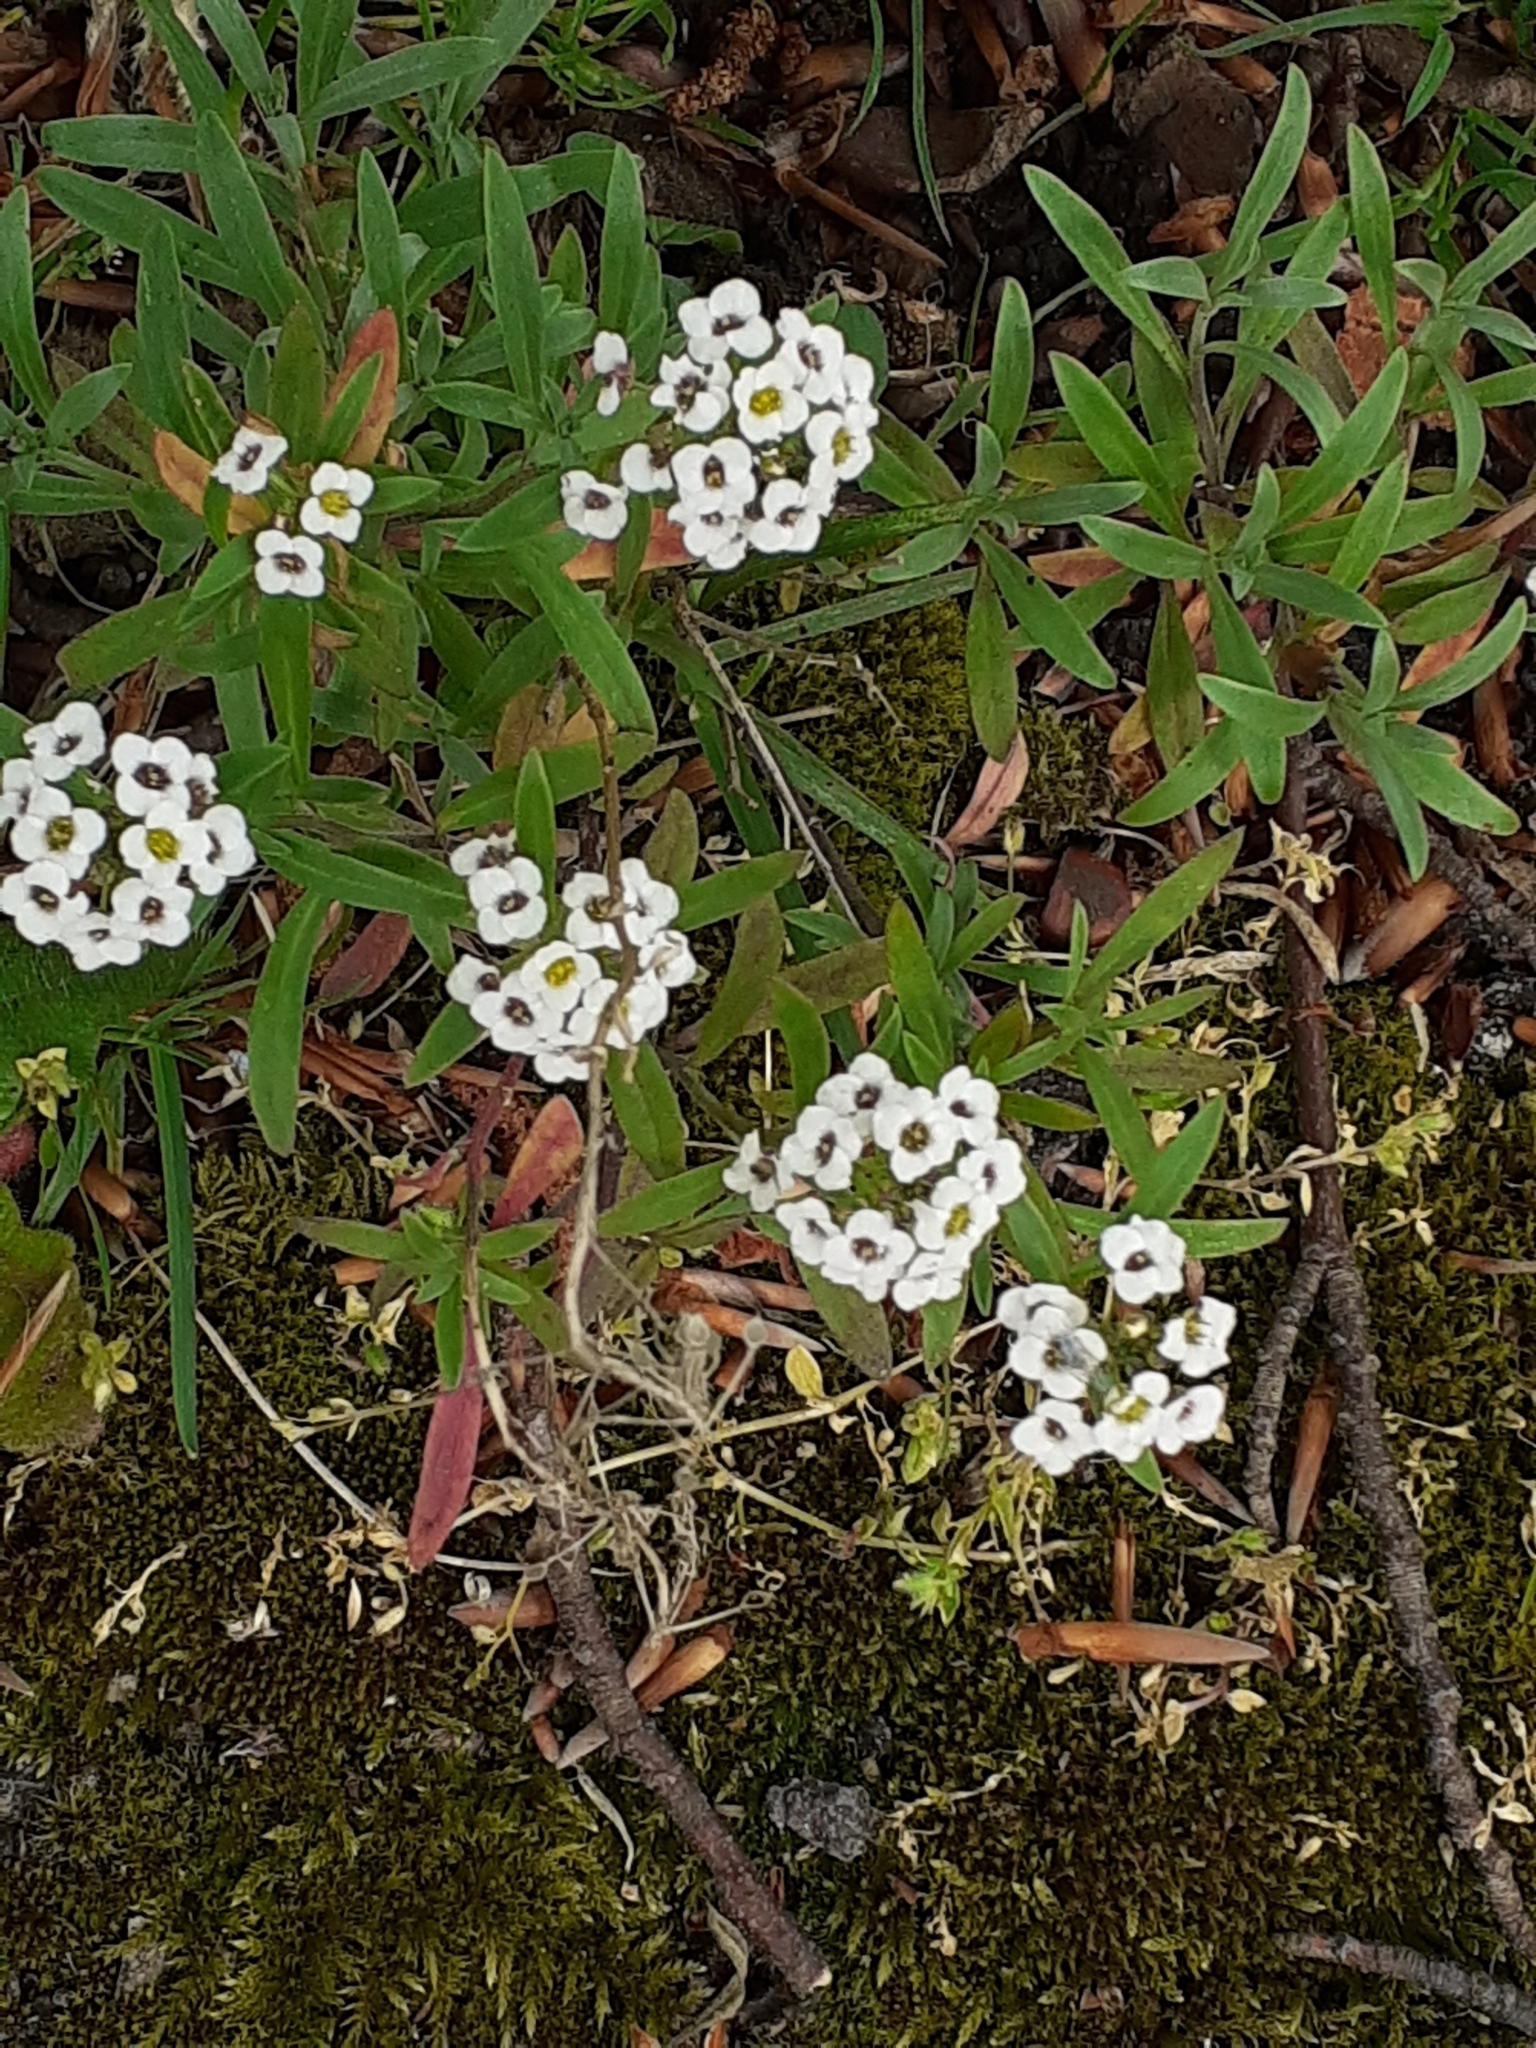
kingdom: Plantae
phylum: Tracheophyta
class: Magnoliopsida
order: Brassicales
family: Brassicaceae
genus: Lobularia
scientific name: Lobularia maritima
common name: Sweet alison
